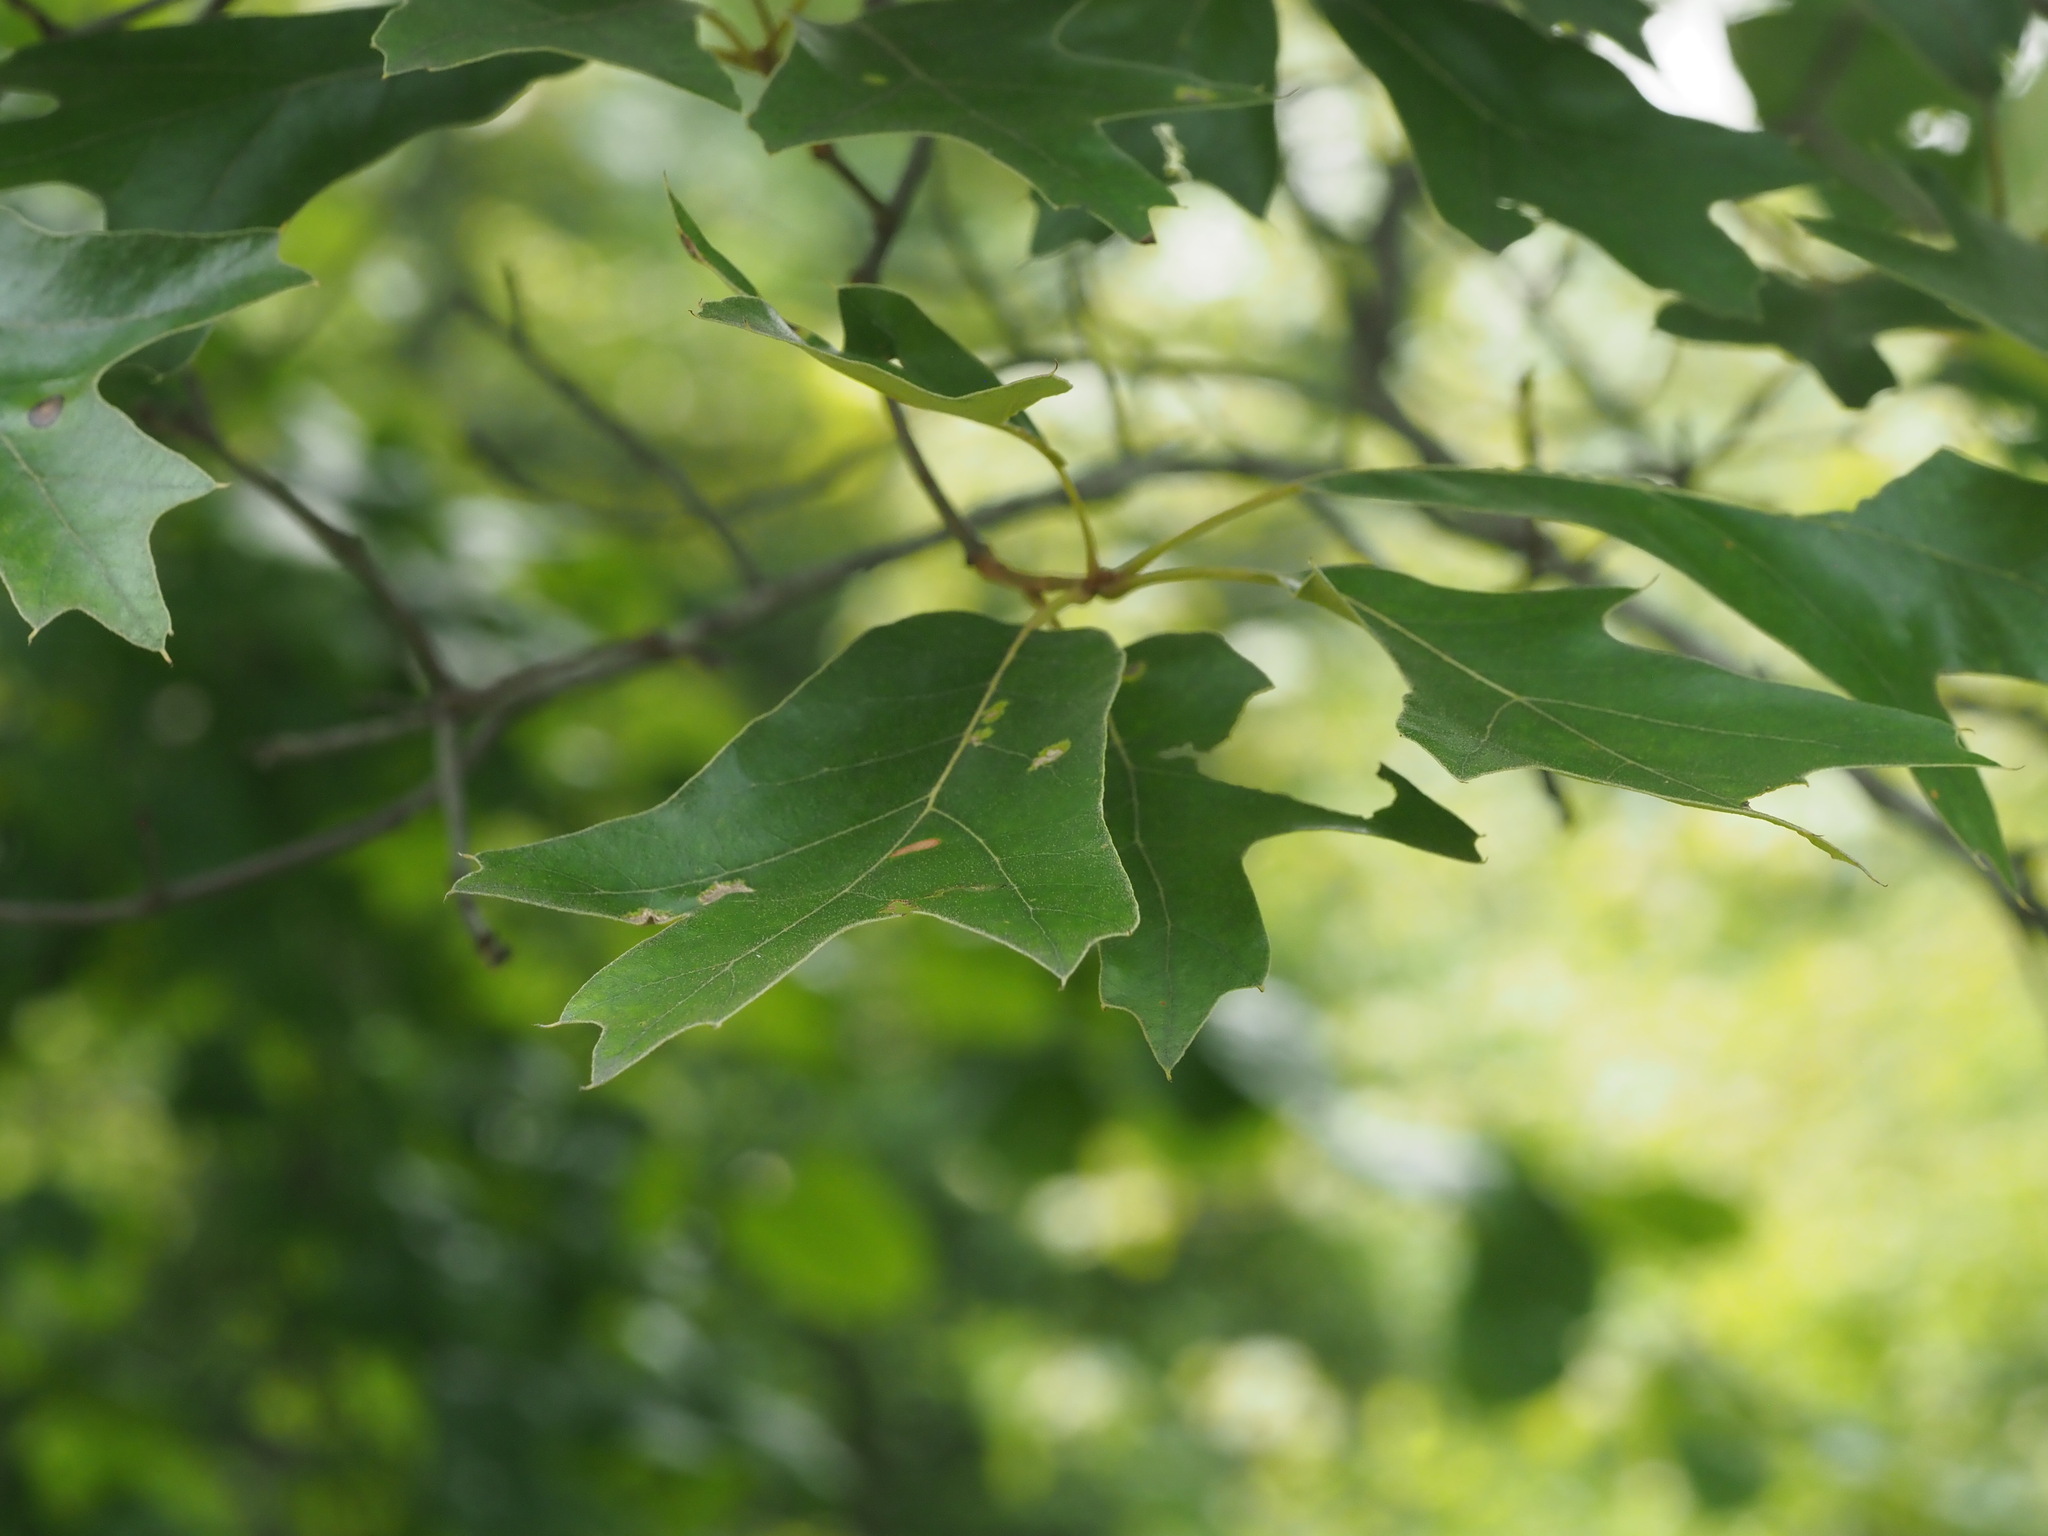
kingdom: Plantae
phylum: Tracheophyta
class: Magnoliopsida
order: Fagales
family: Fagaceae
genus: Quercus
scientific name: Quercus falcata
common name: Southern red oak
